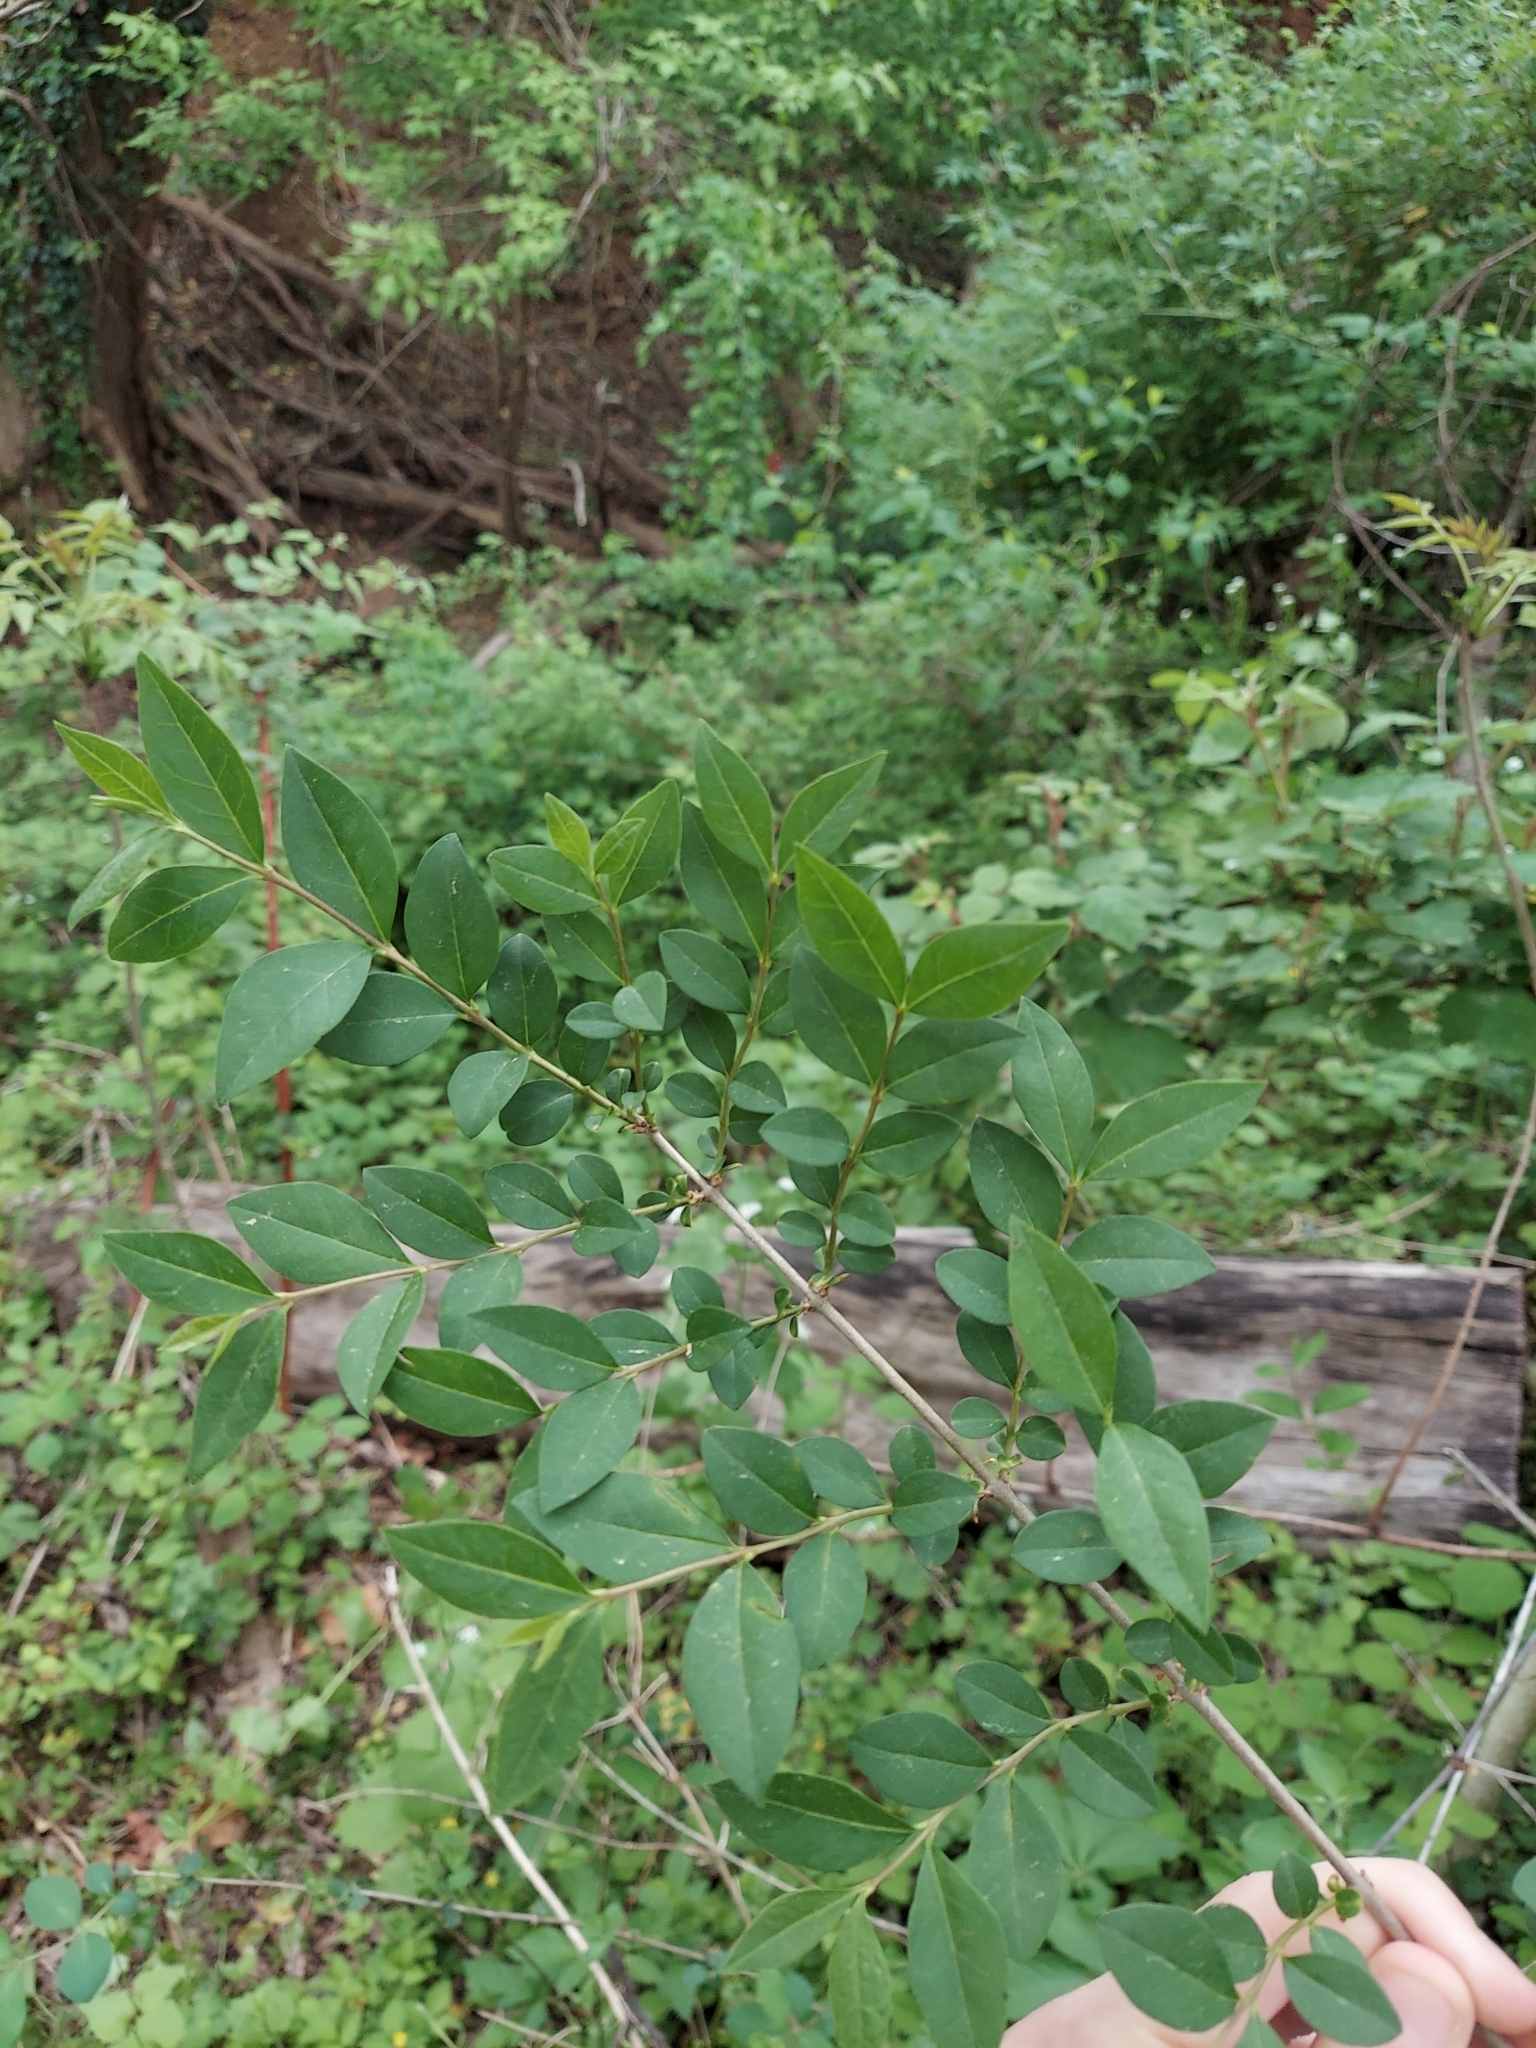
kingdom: Plantae
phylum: Tracheophyta
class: Magnoliopsida
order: Lamiales
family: Oleaceae
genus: Ligustrum
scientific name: Ligustrum sinense
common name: Chinese privet
